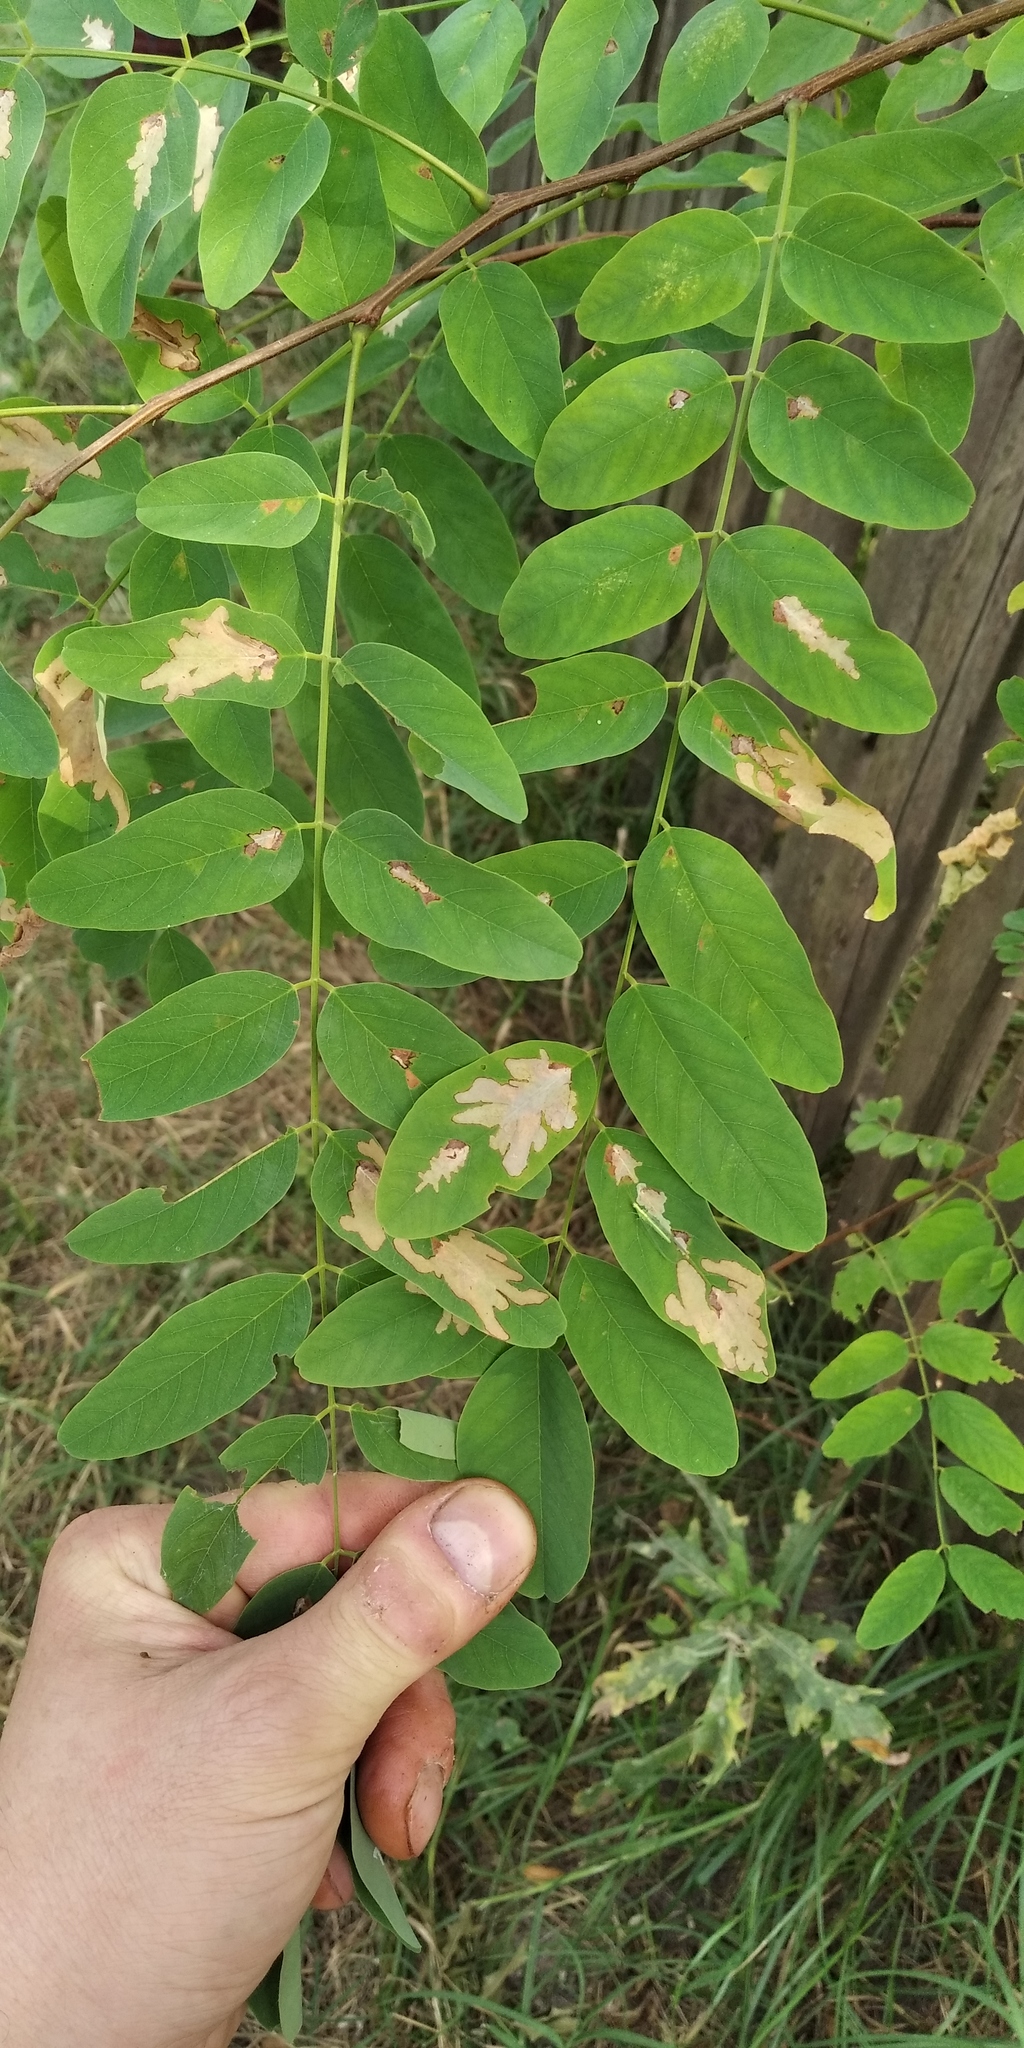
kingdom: Animalia
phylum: Arthropoda
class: Insecta
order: Lepidoptera
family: Gracillariidae
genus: Parectopa
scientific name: Parectopa robiniella
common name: Locust digitate leafminer
